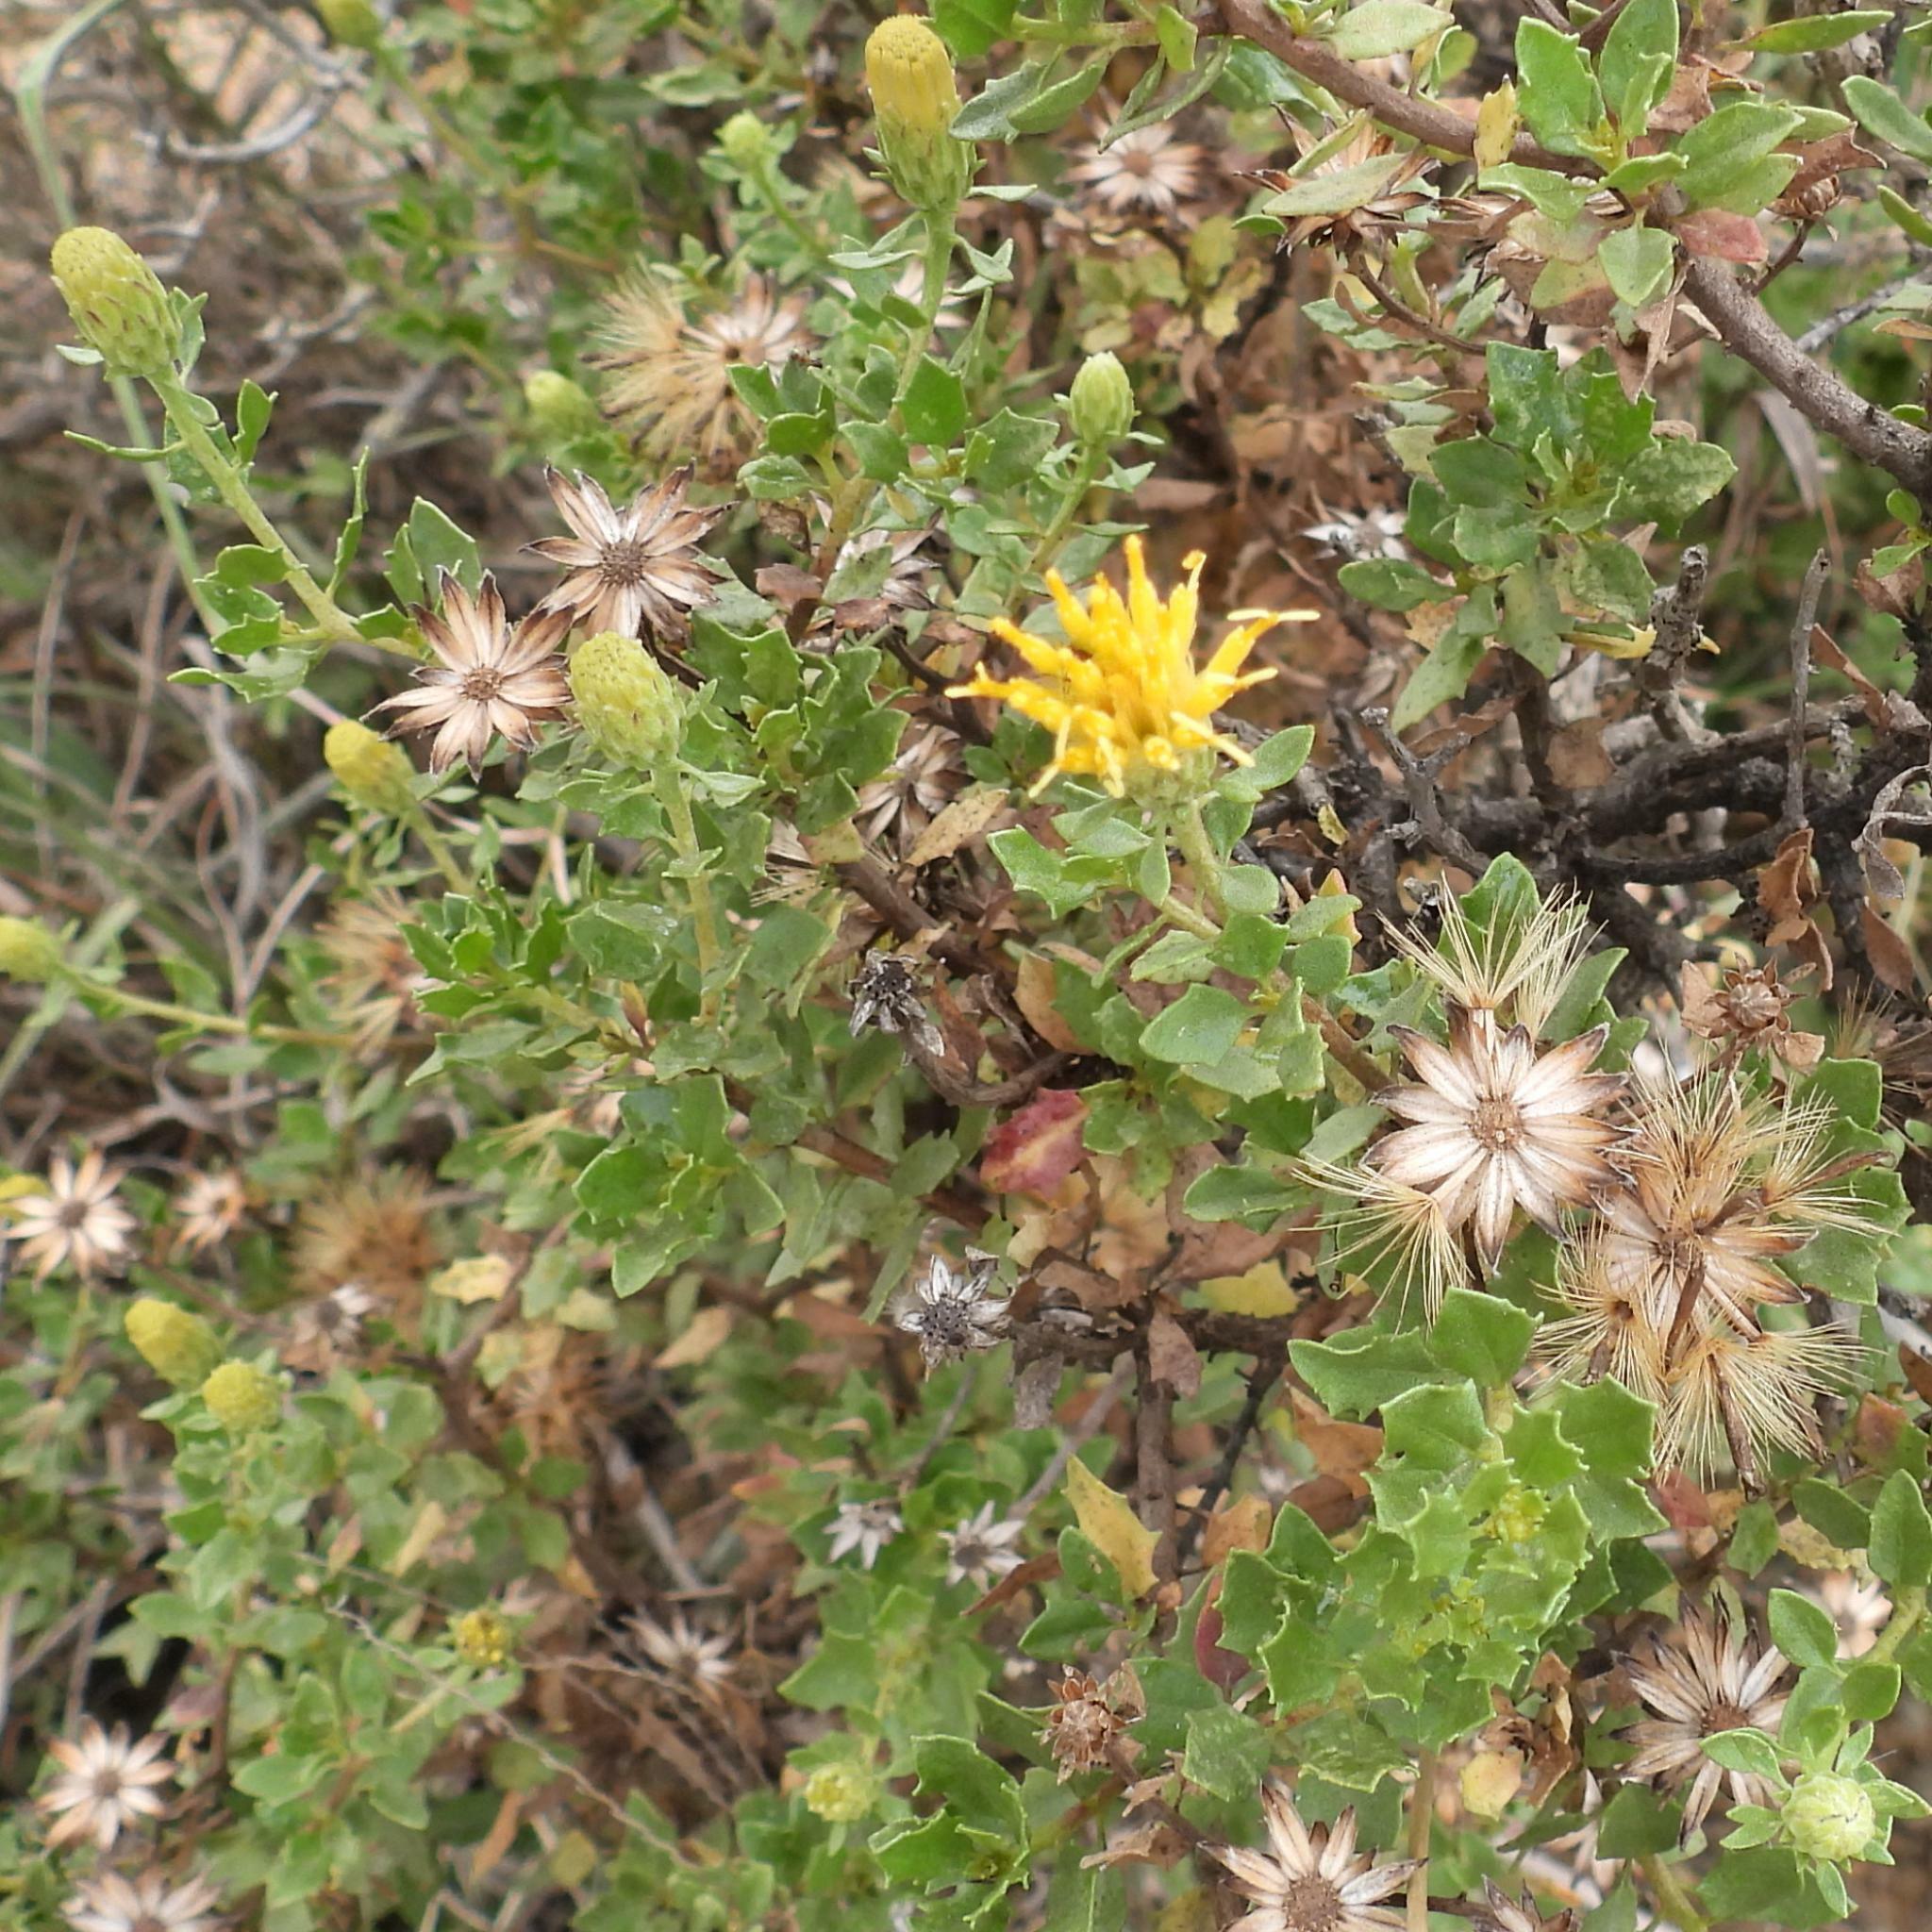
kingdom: Plantae
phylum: Tracheophyta
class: Magnoliopsida
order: Asterales
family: Asteraceae
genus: Pegolettia
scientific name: Pegolettia baccaridifolia
